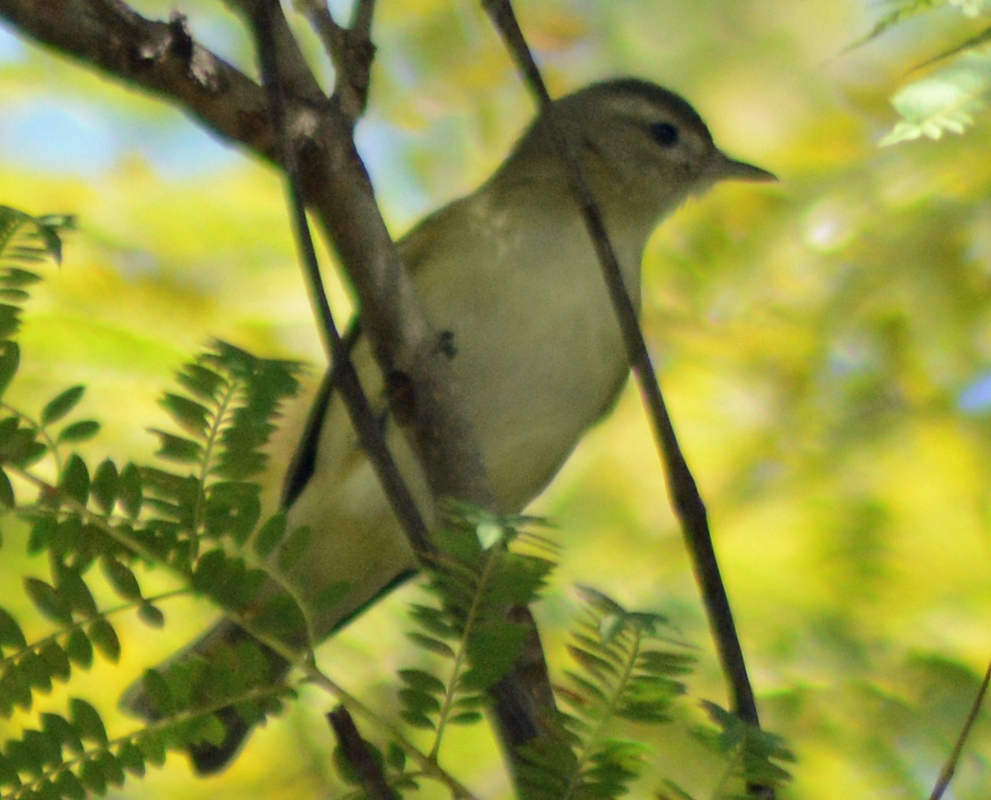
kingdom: Animalia
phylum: Chordata
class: Aves
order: Passeriformes
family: Vireonidae
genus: Vireo
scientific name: Vireo gilvus
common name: Warbling vireo
